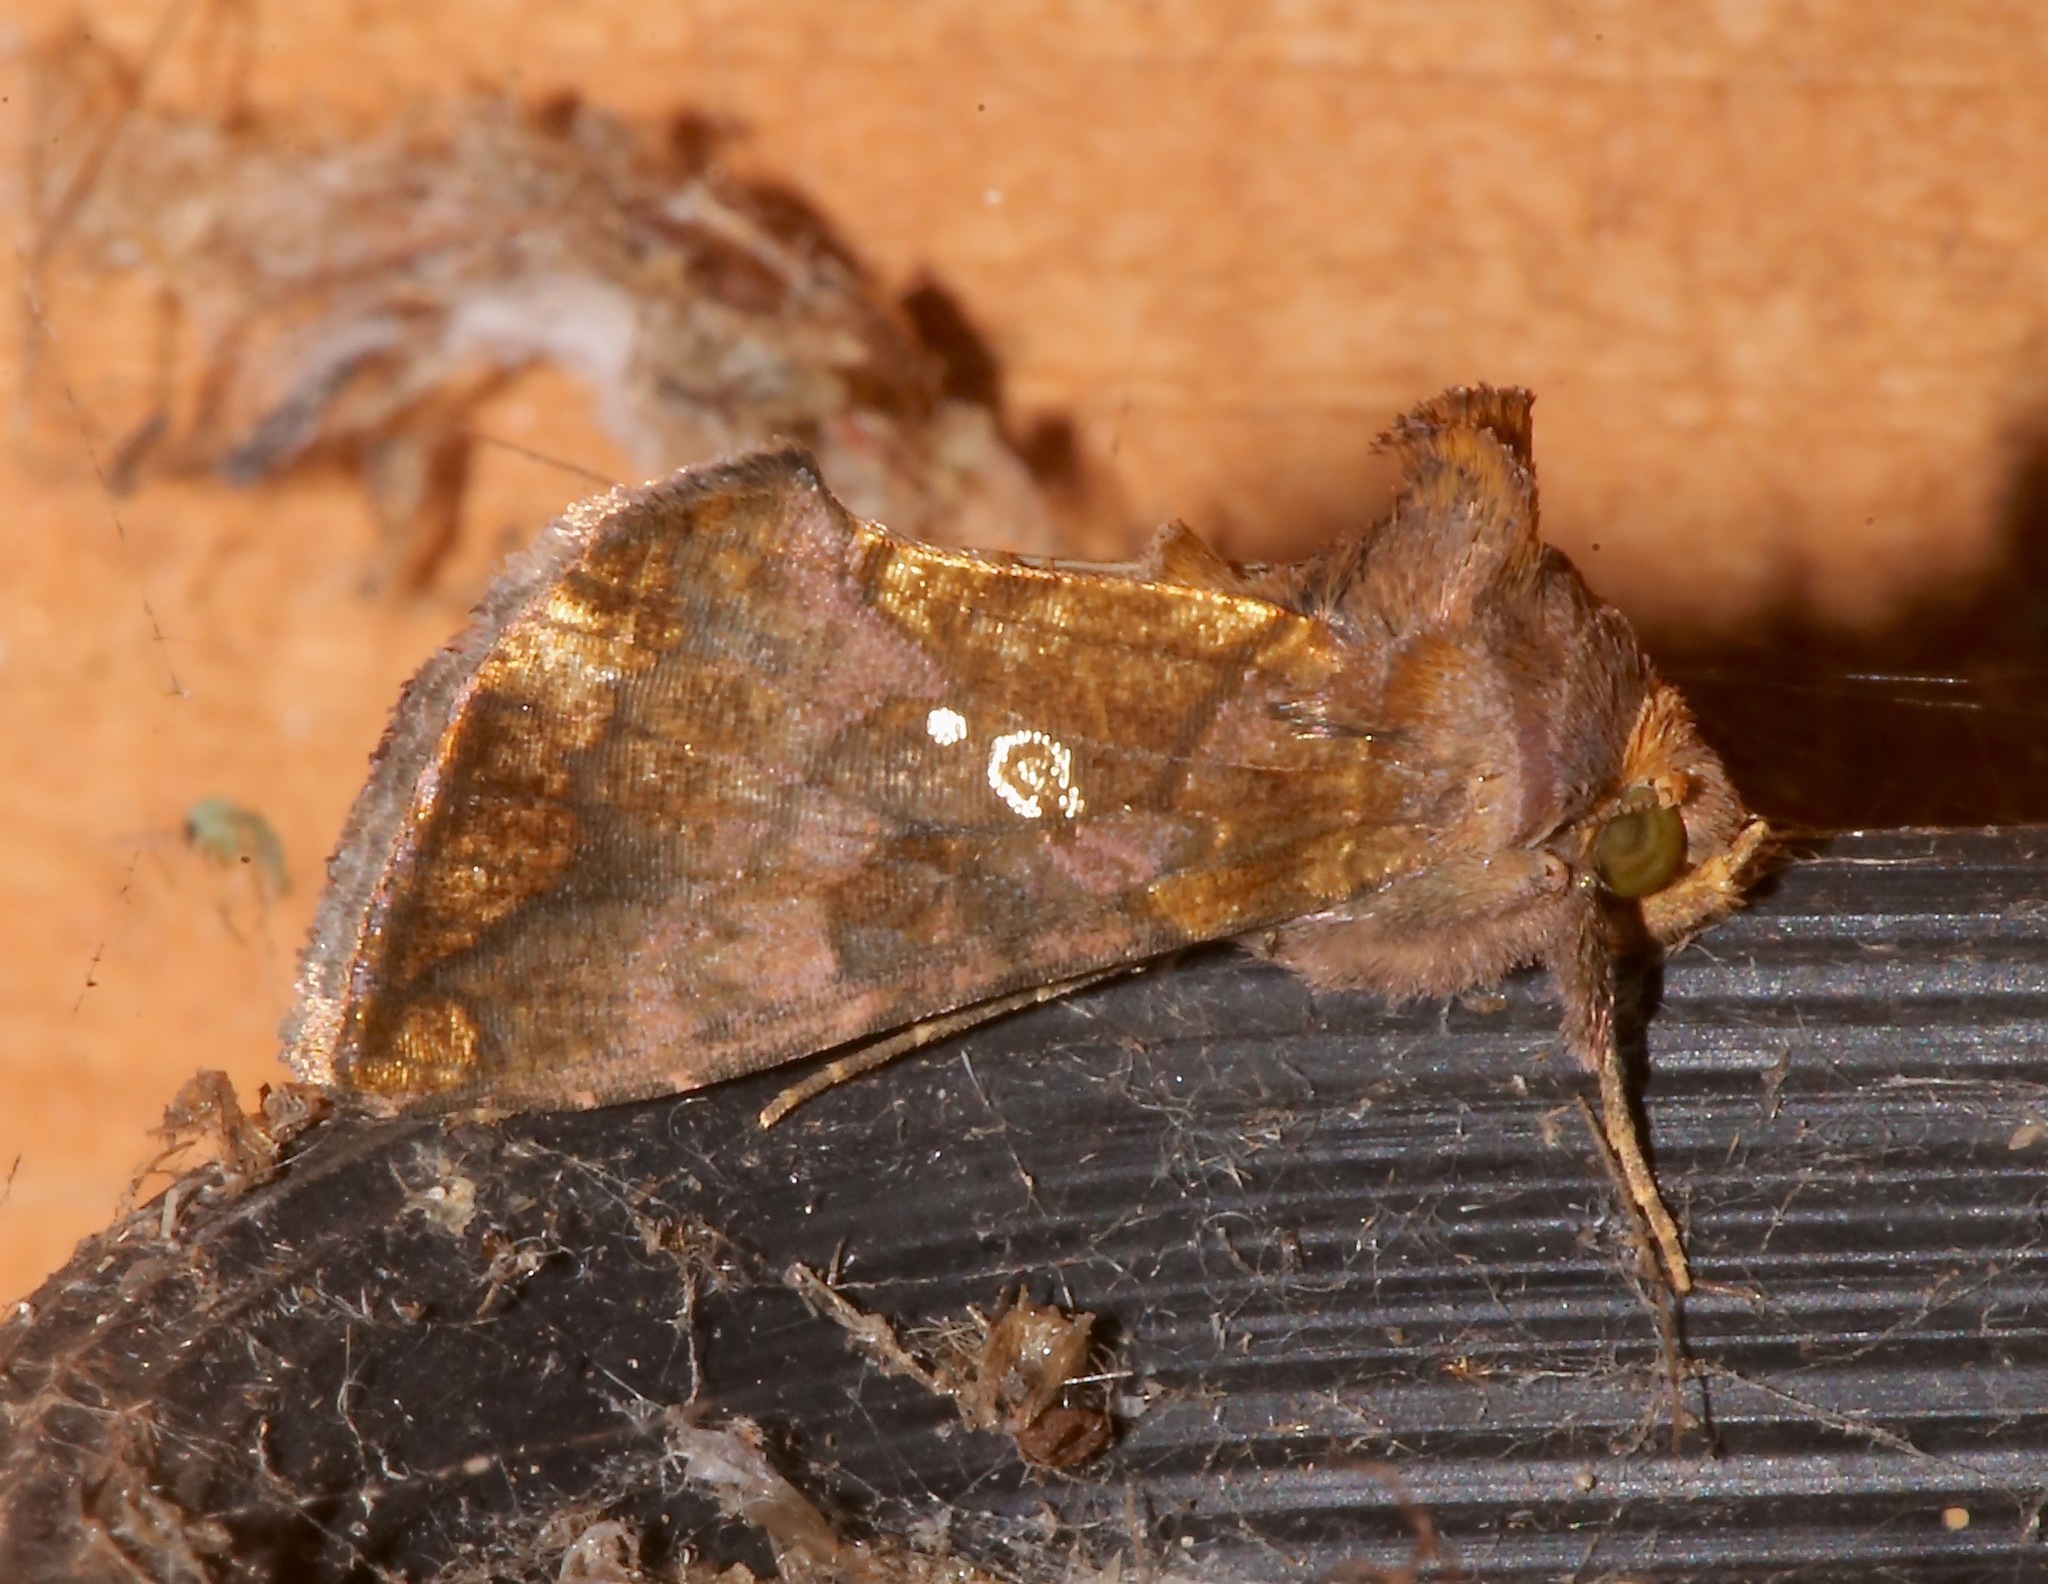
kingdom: Animalia
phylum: Arthropoda
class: Insecta
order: Lepidoptera
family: Noctuidae
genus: Argyrogramma
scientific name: Argyrogramma verruca
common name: Golden looper moth
